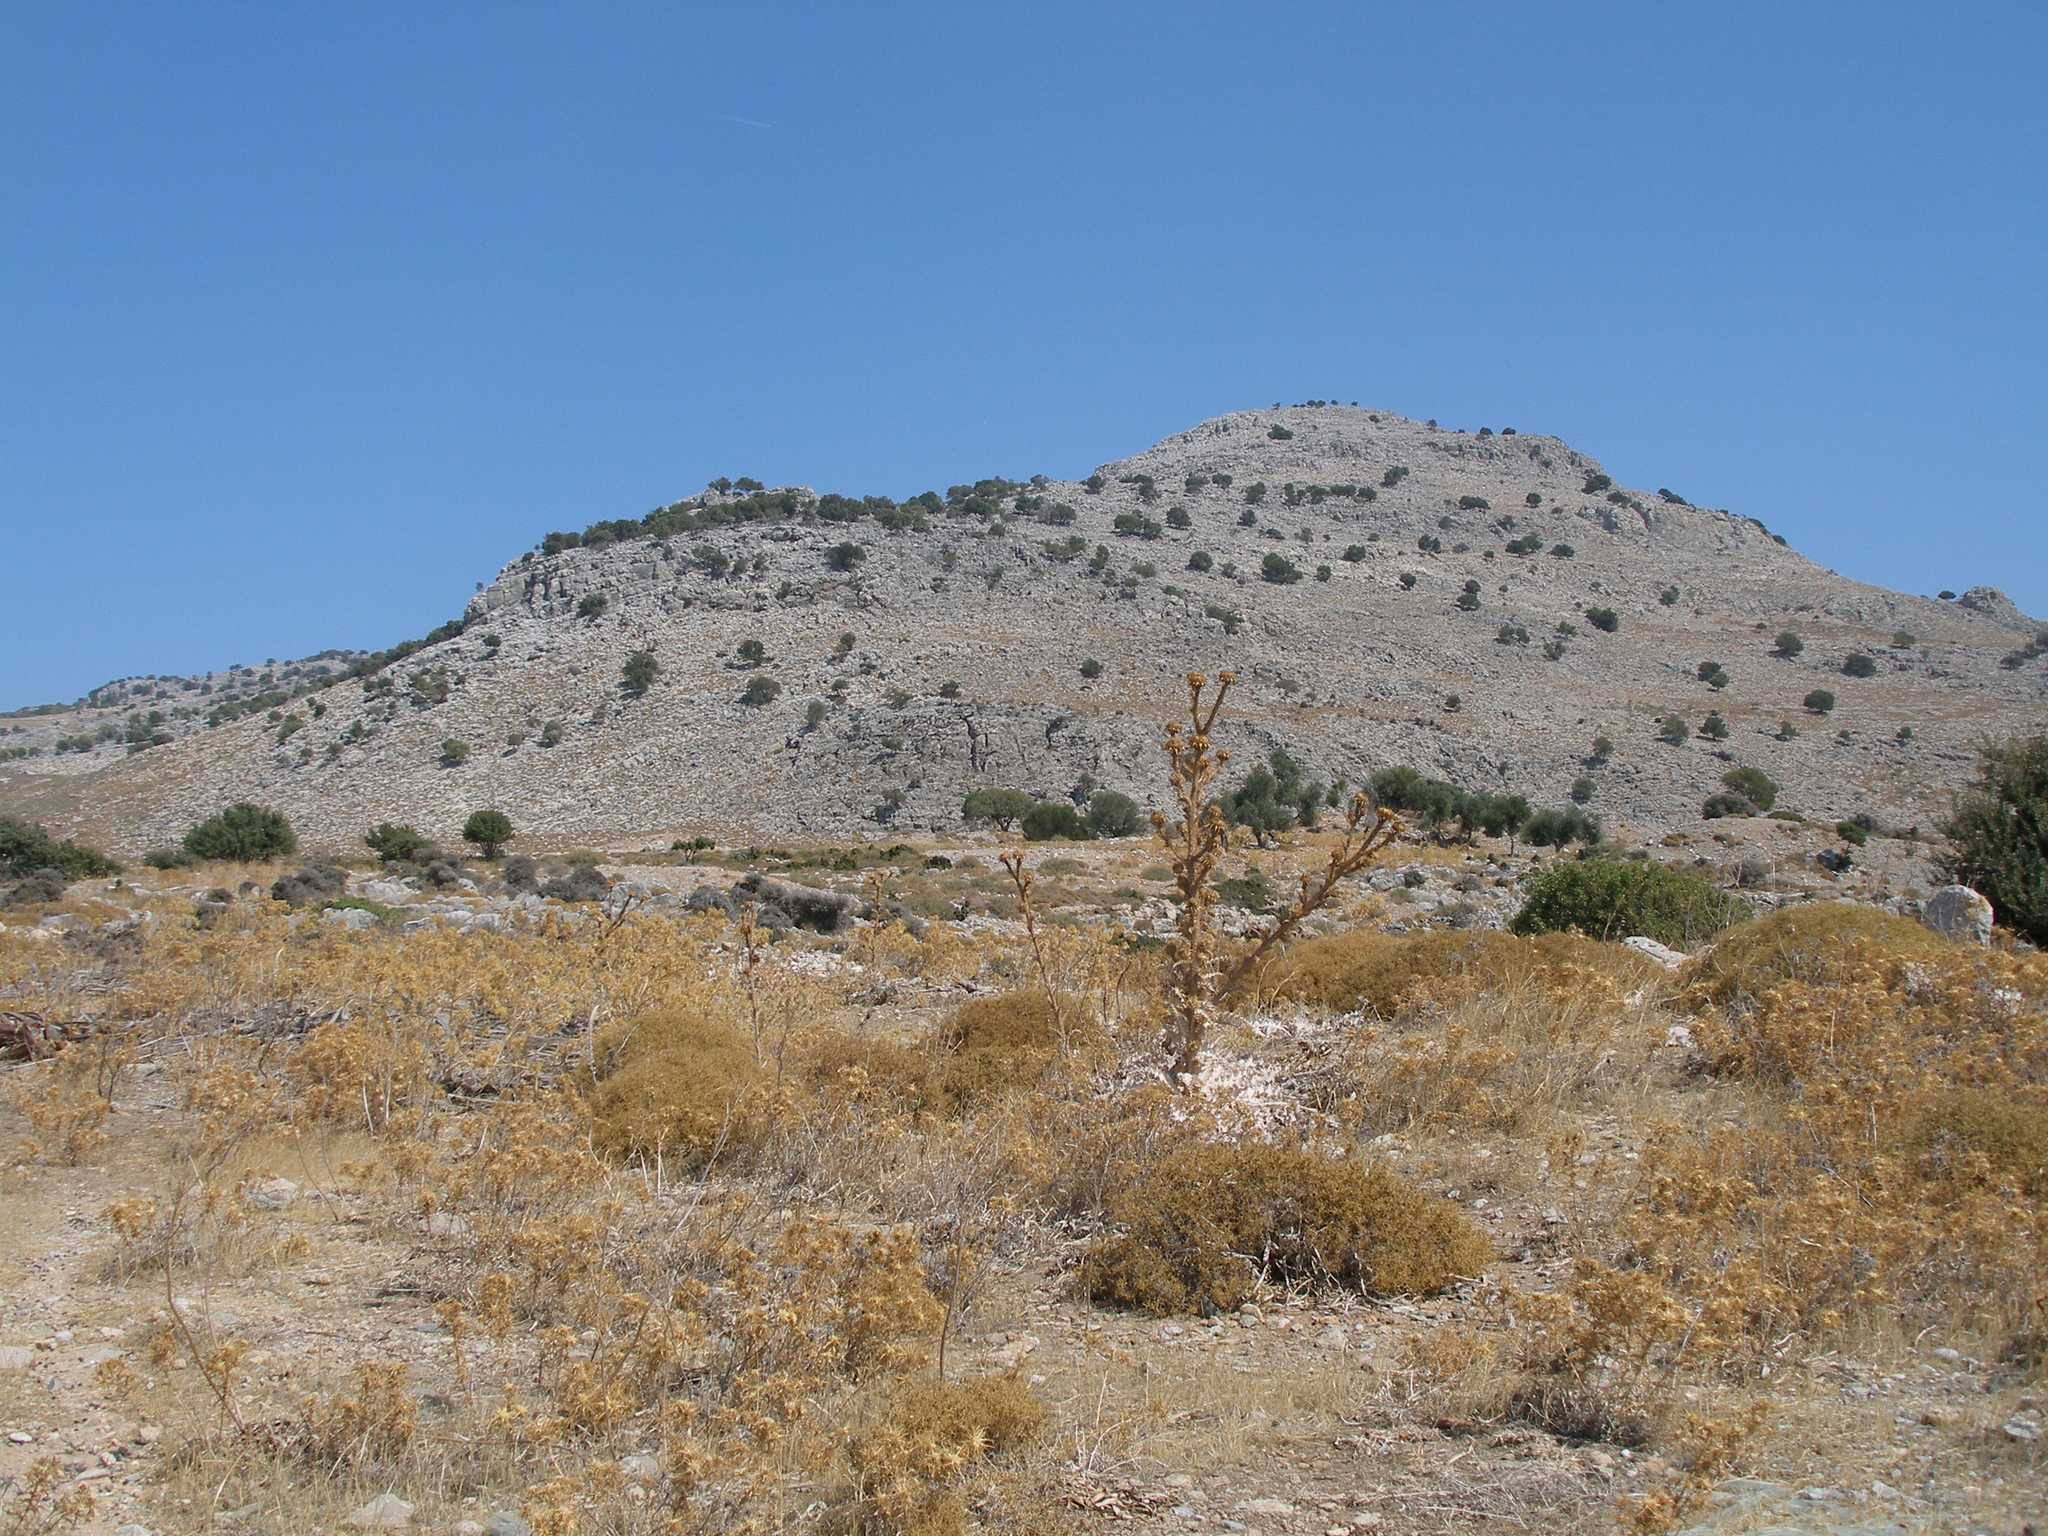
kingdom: Plantae
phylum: Tracheophyta
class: Magnoliopsida
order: Asterales
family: Asteraceae
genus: Onopordum
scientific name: Onopordum bracteatum
